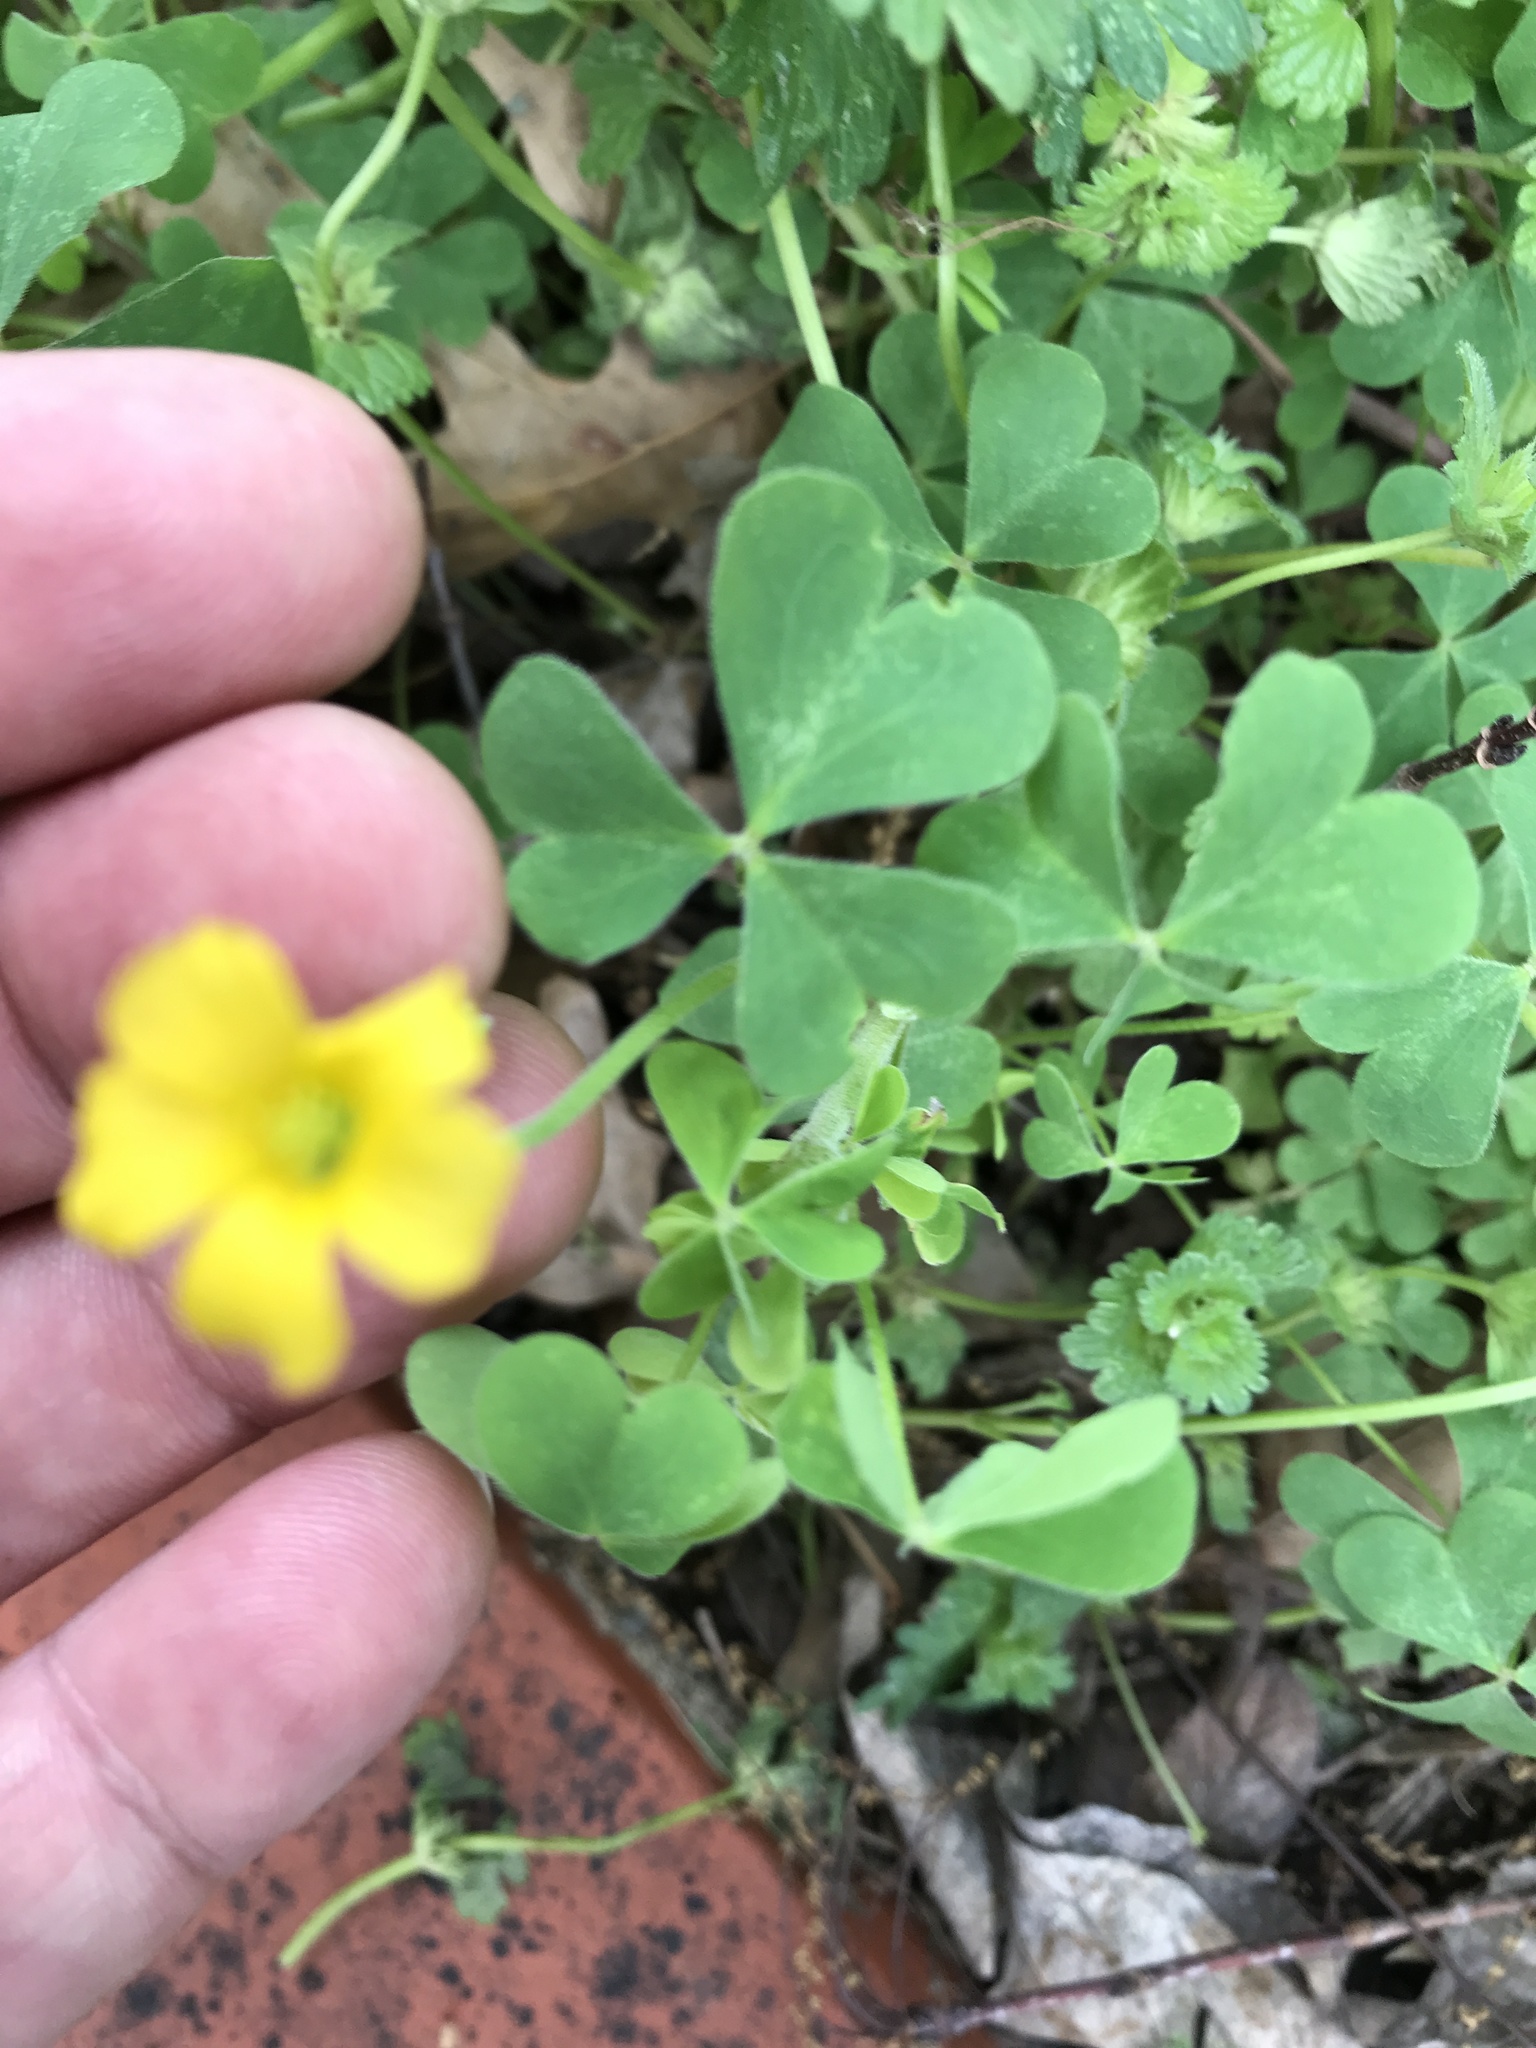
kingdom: Plantae
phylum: Tracheophyta
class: Magnoliopsida
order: Oxalidales
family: Oxalidaceae
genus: Oxalis
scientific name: Oxalis dillenii
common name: Sussex yellow-sorrel
